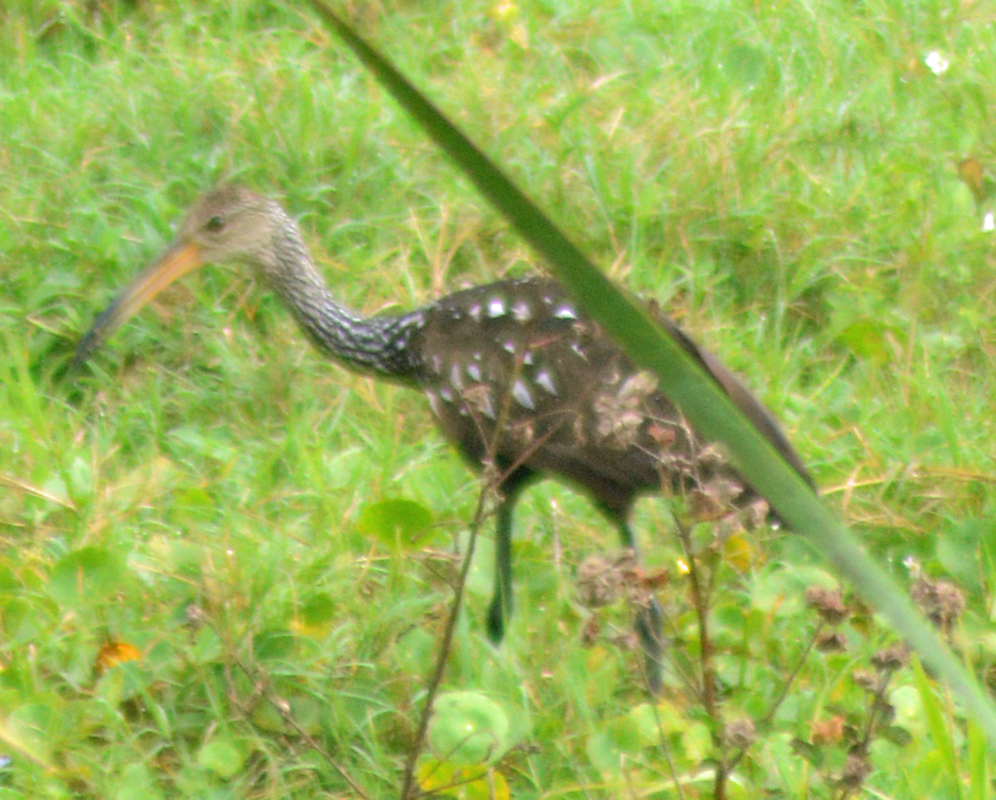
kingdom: Animalia
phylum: Chordata
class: Aves
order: Gruiformes
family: Aramidae
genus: Aramus
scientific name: Aramus guarauna
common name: Limpkin
